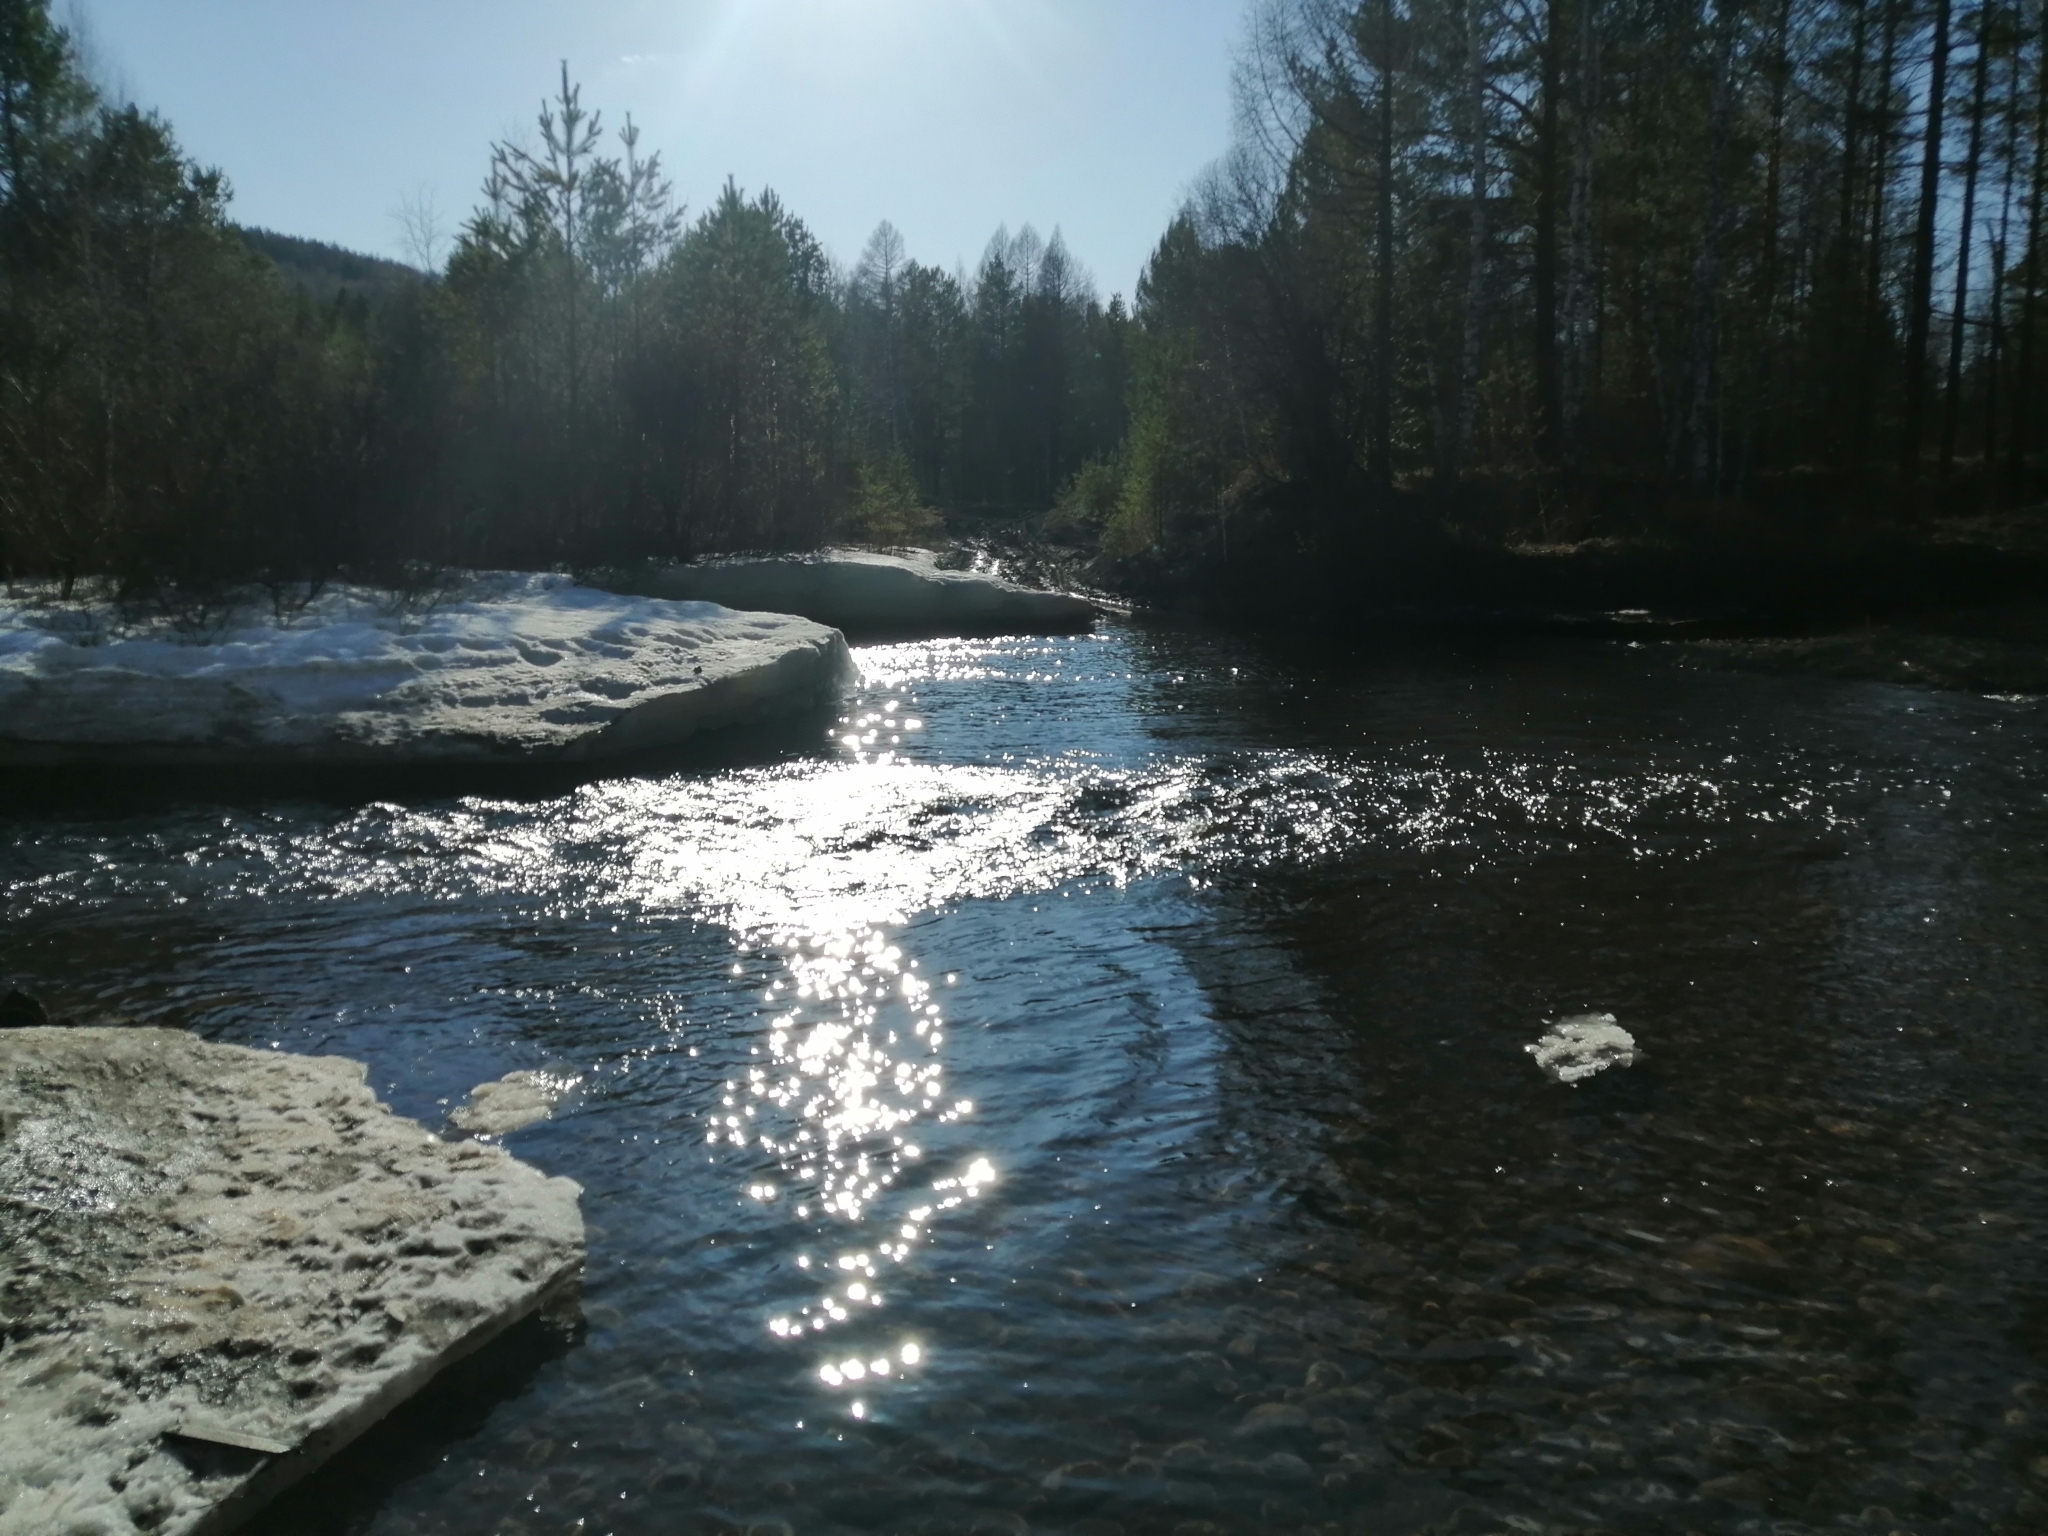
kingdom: Plantae
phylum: Tracheophyta
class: Pinopsida
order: Pinales
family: Pinaceae
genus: Pinus
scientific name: Pinus sylvestris
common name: Scots pine
